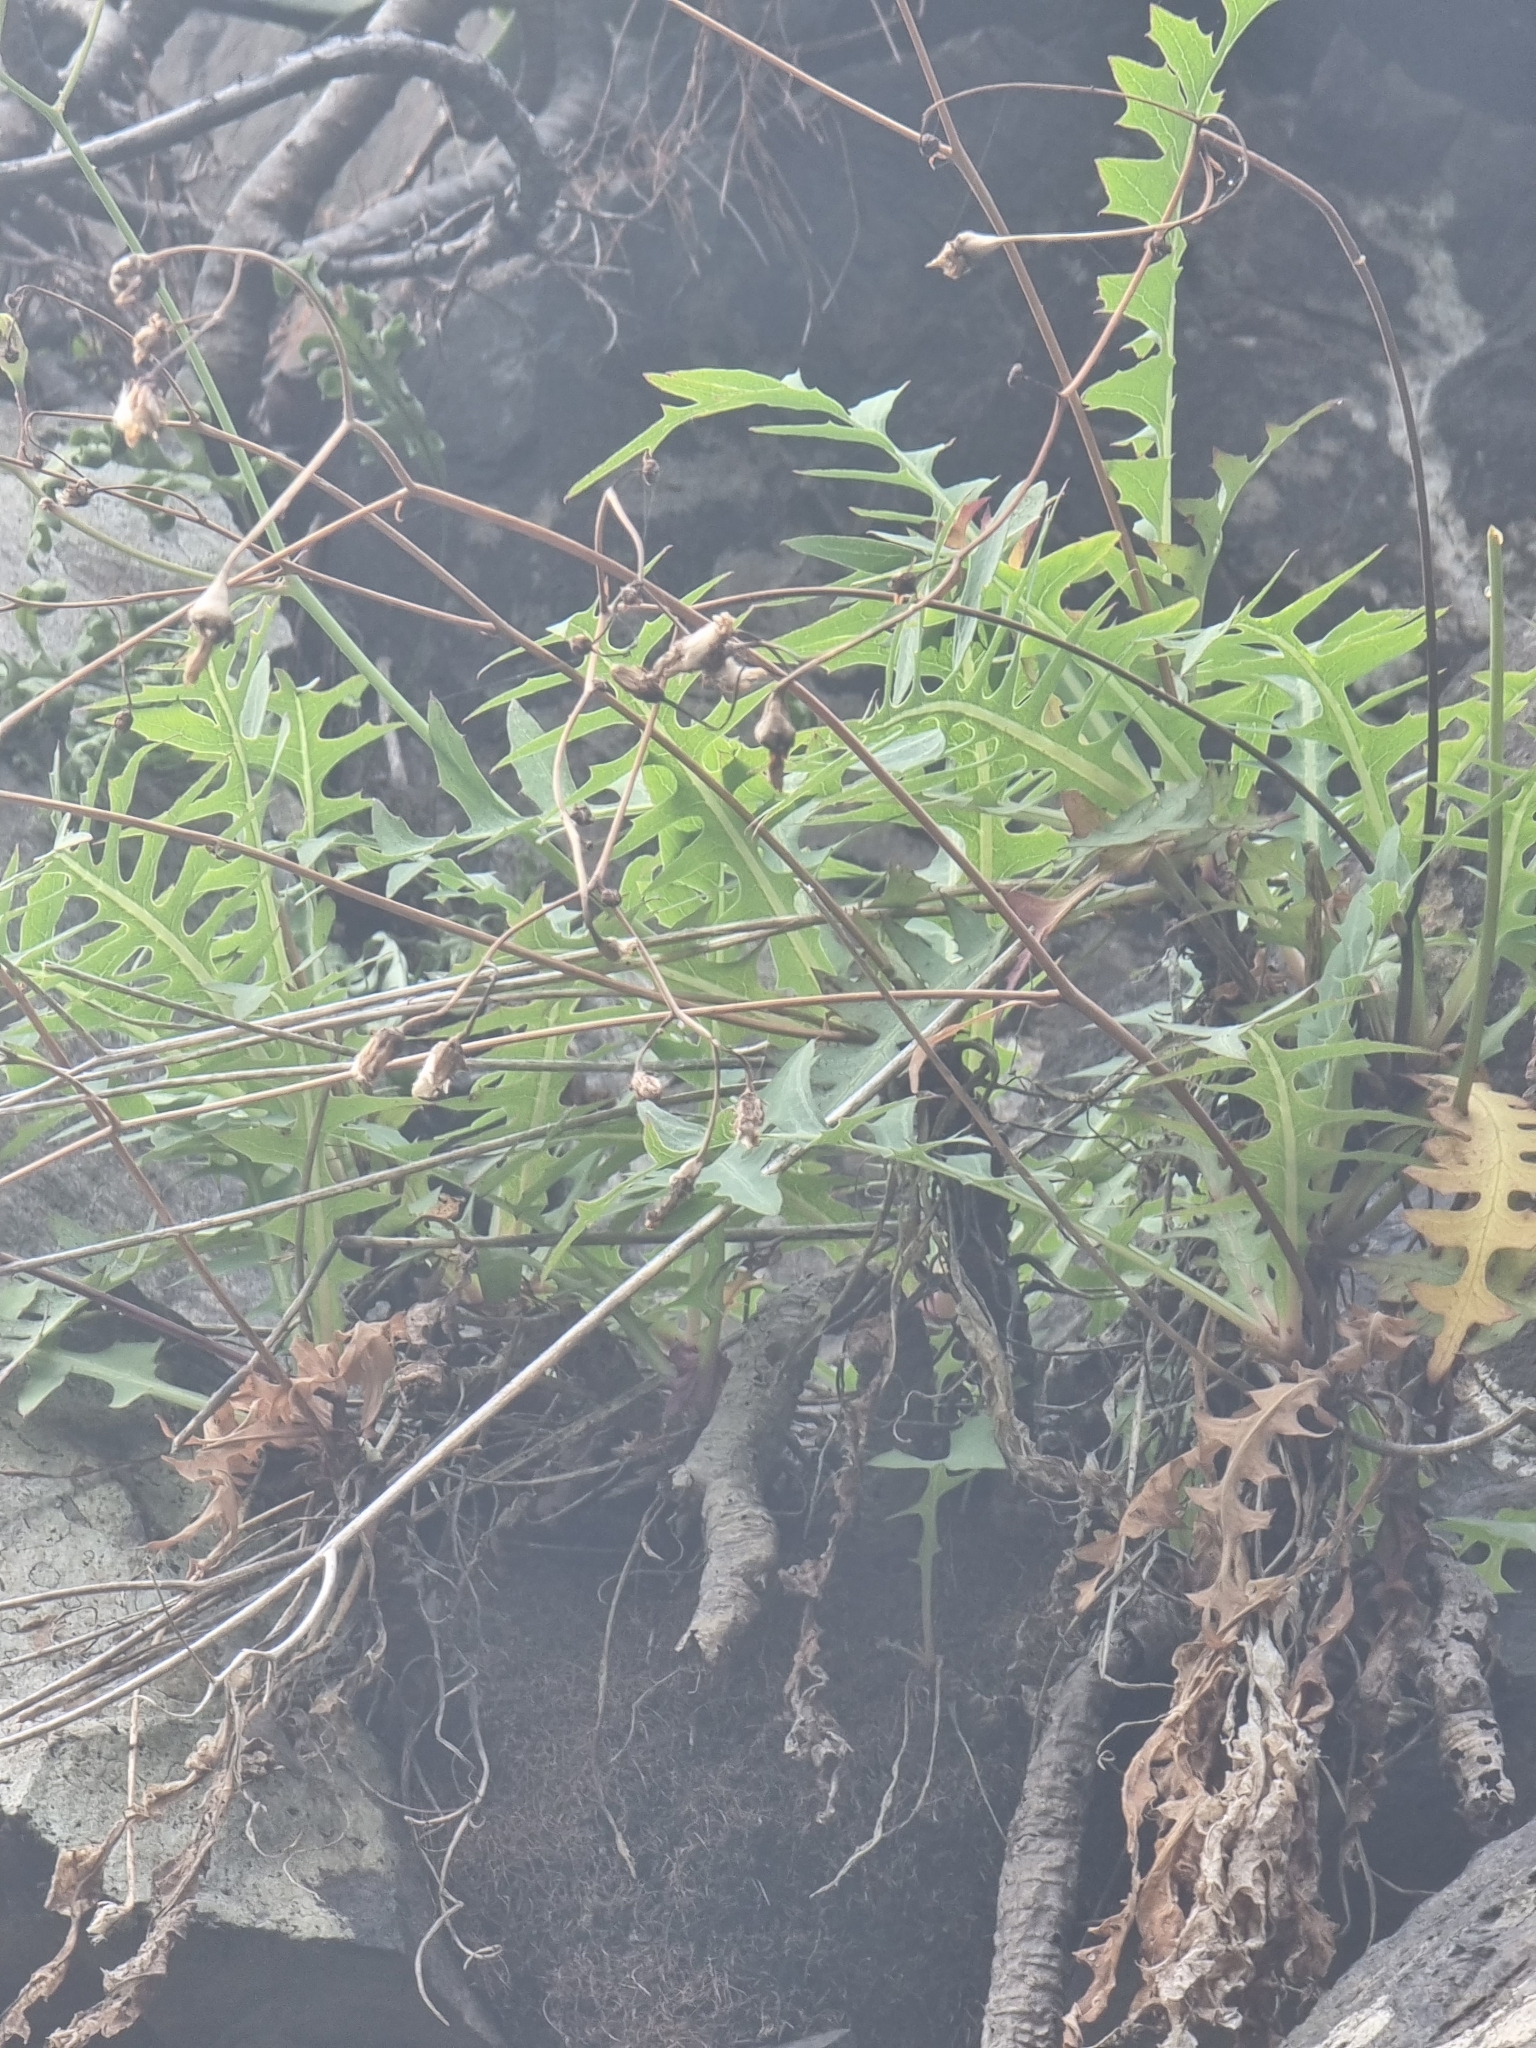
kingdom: Plantae
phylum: Tracheophyta
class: Magnoliopsida
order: Asterales
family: Asteraceae
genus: Sonchus
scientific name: Sonchus ustulatus
